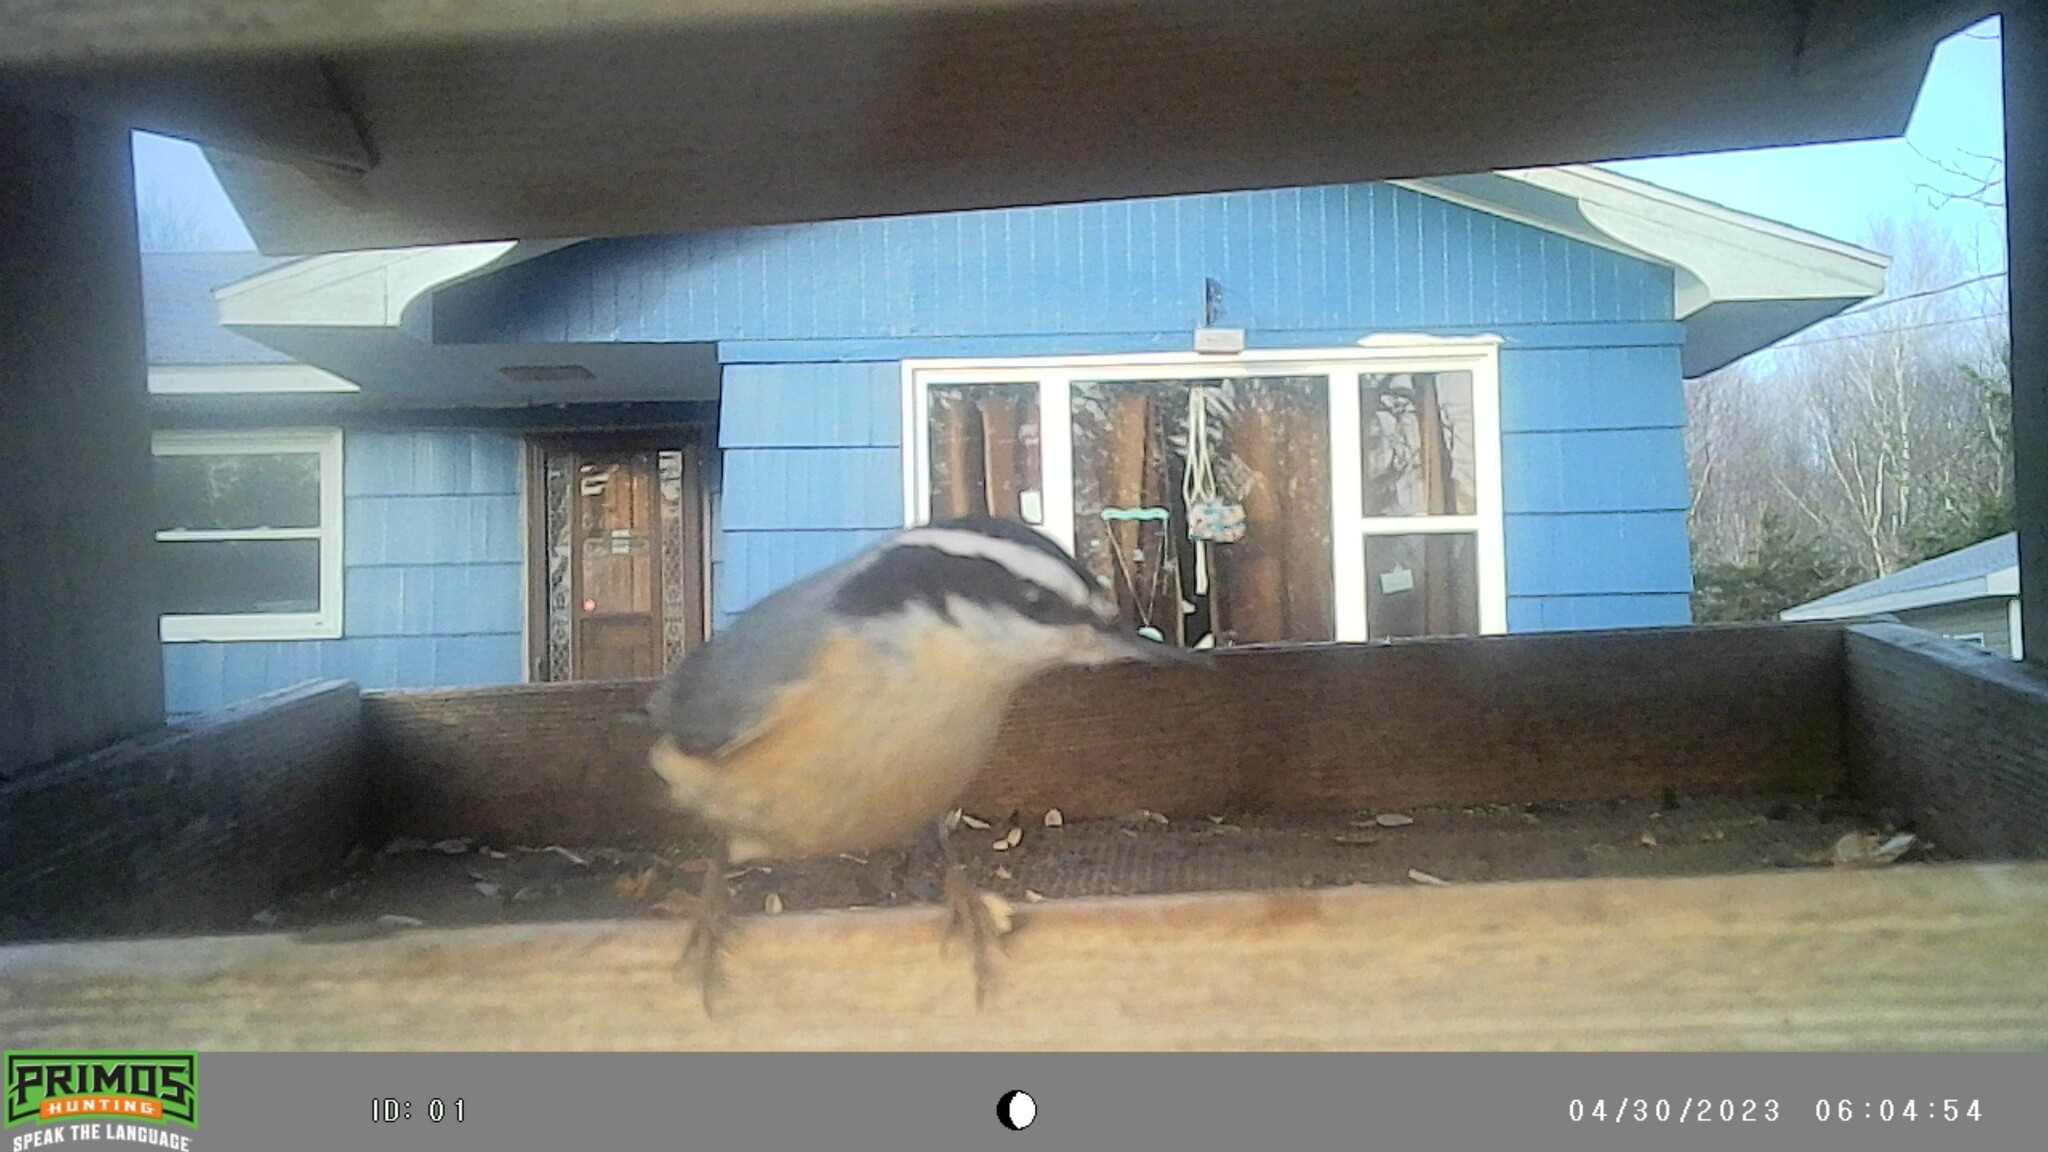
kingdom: Animalia
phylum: Chordata
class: Aves
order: Passeriformes
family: Sittidae
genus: Sitta
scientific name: Sitta canadensis
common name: Red-breasted nuthatch
